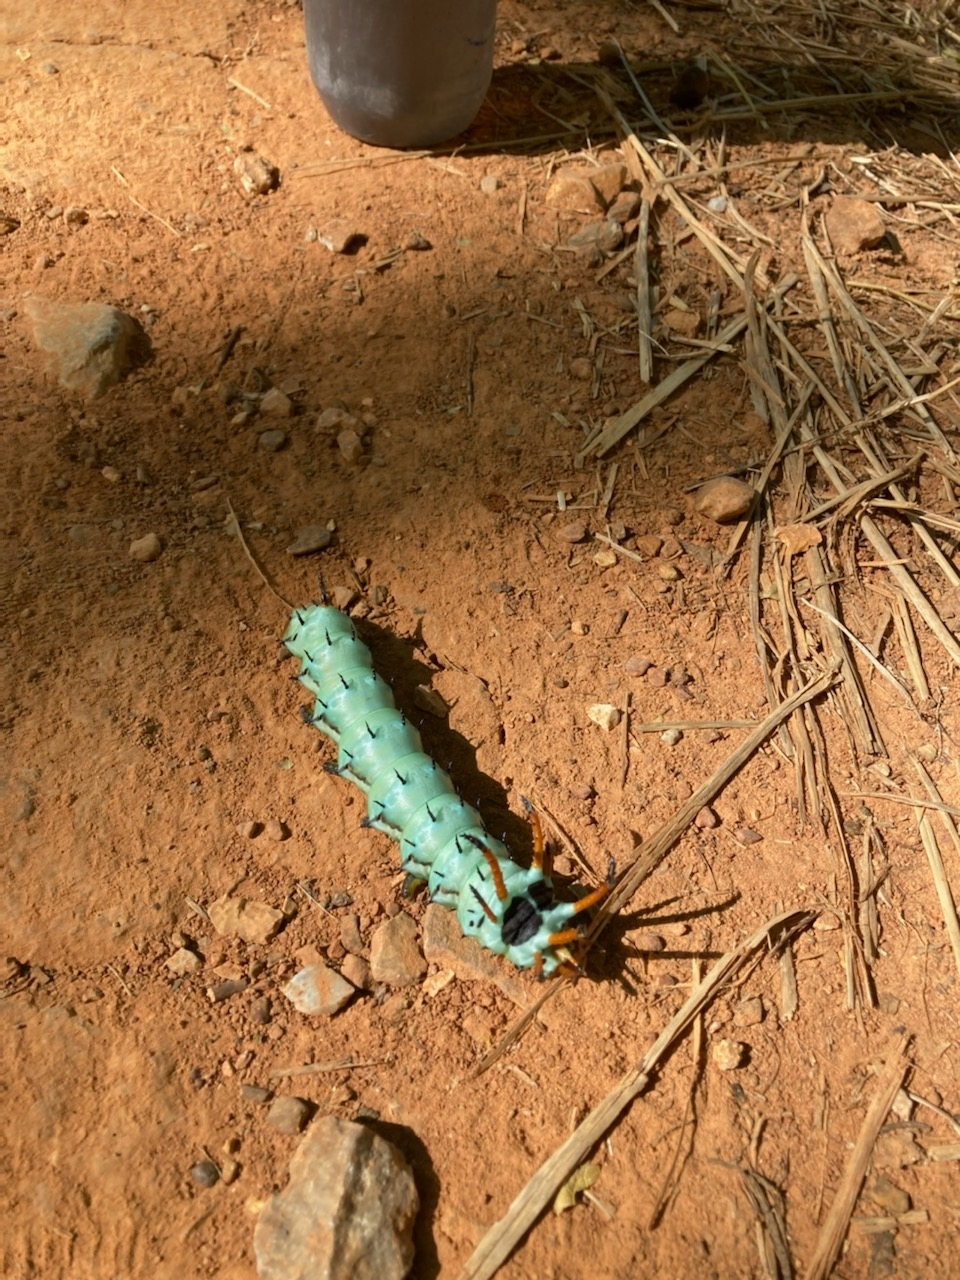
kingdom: Animalia
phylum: Arthropoda
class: Insecta
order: Lepidoptera
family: Saturniidae
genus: Citheronia
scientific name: Citheronia regalis
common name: Hickory horned devil
